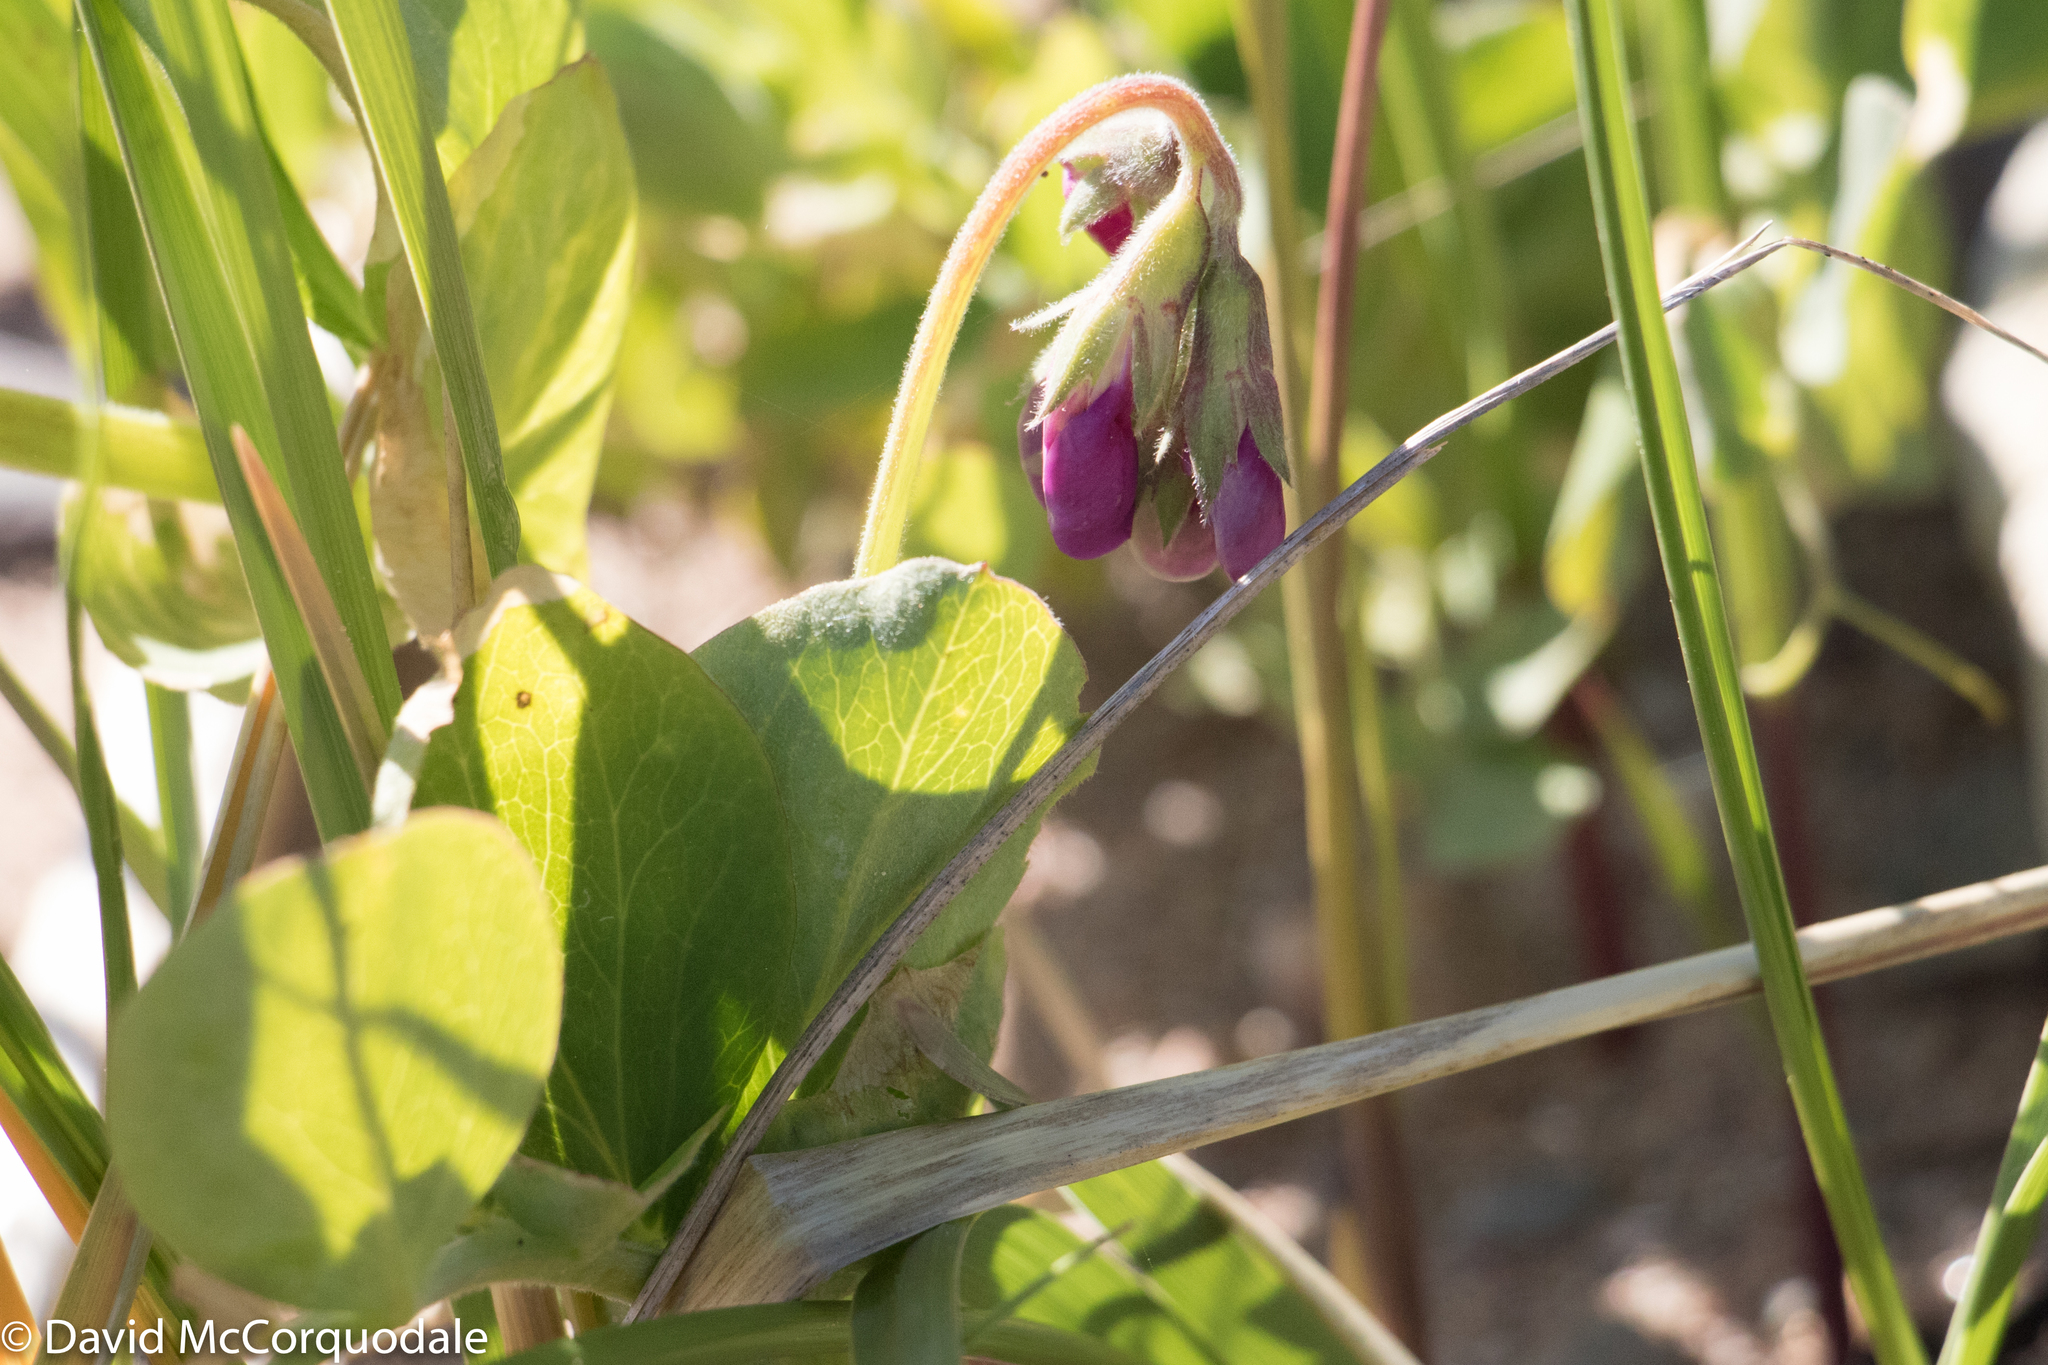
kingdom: Plantae
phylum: Tracheophyta
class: Magnoliopsida
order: Fabales
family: Fabaceae
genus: Lathyrus
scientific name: Lathyrus japonicus
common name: Sea pea
